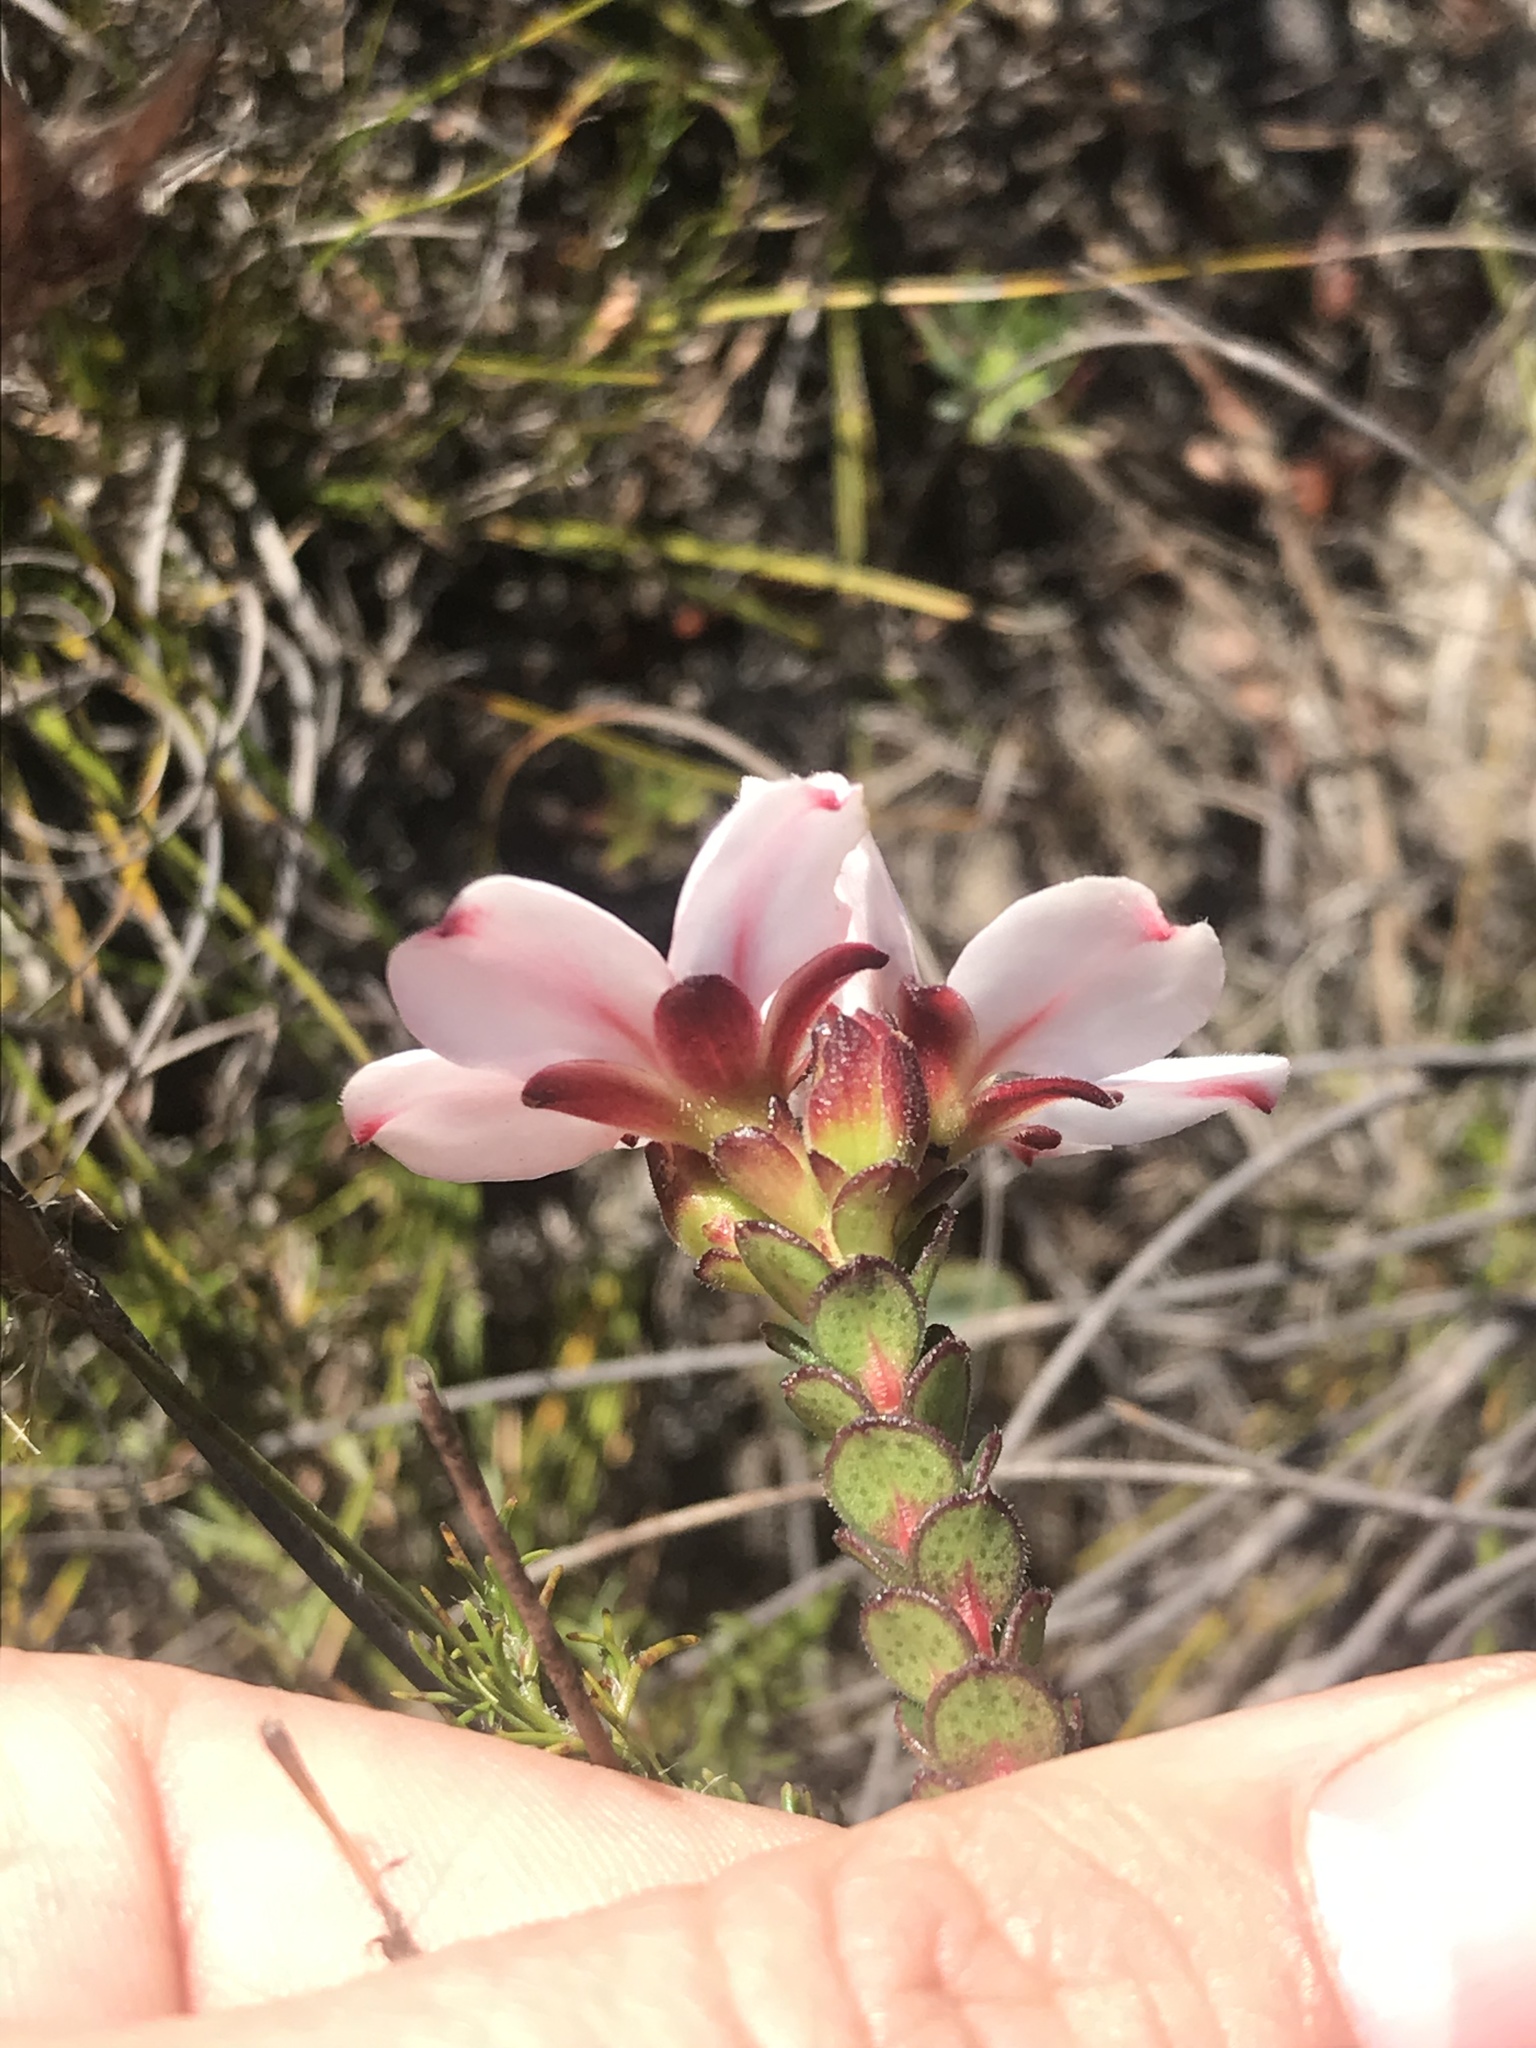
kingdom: Plantae
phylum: Tracheophyta
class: Magnoliopsida
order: Sapindales
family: Rutaceae
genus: Adenandra
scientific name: Adenandra villosa
